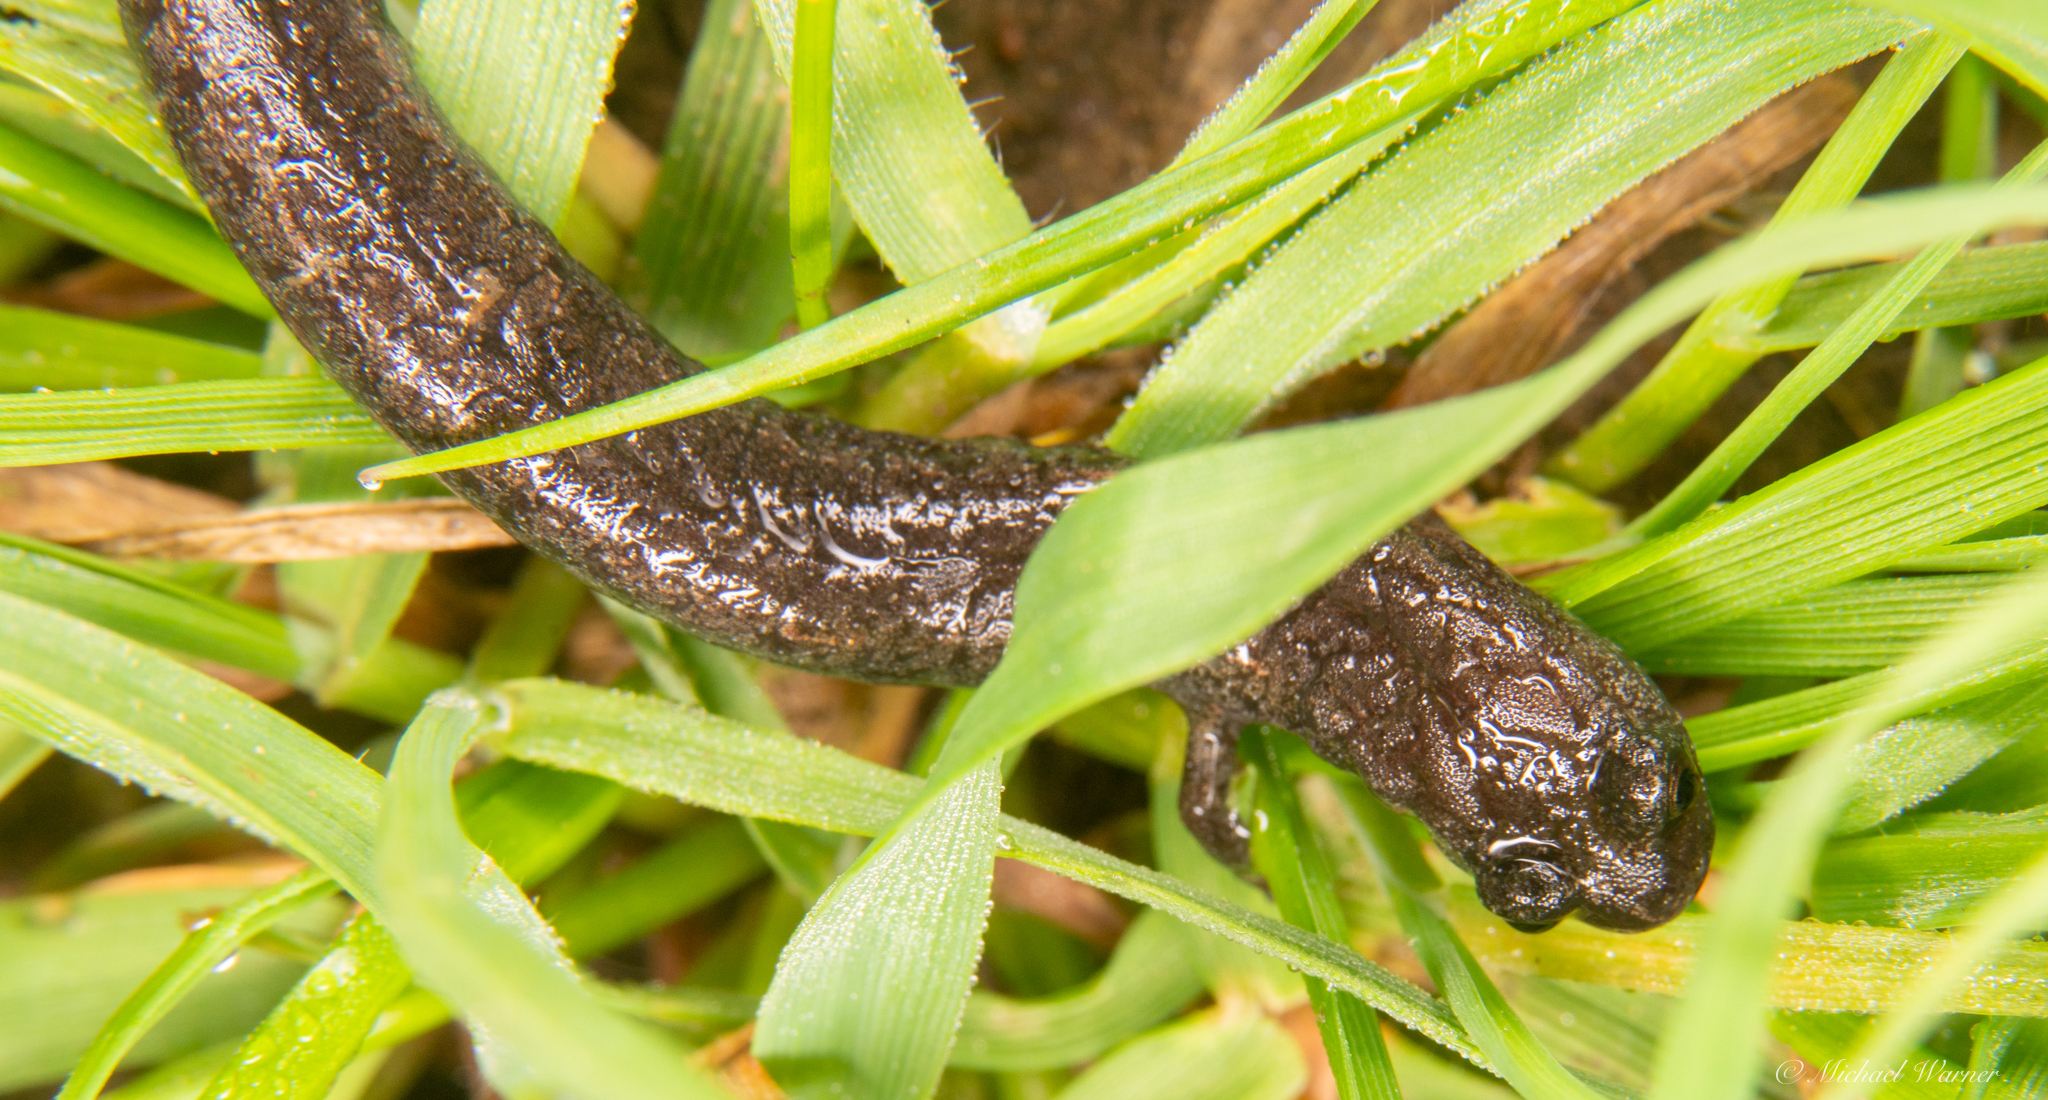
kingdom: Animalia
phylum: Chordata
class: Amphibia
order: Caudata
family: Plethodontidae
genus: Batrachoseps
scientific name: Batrachoseps attenuatus
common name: California slender salamander
